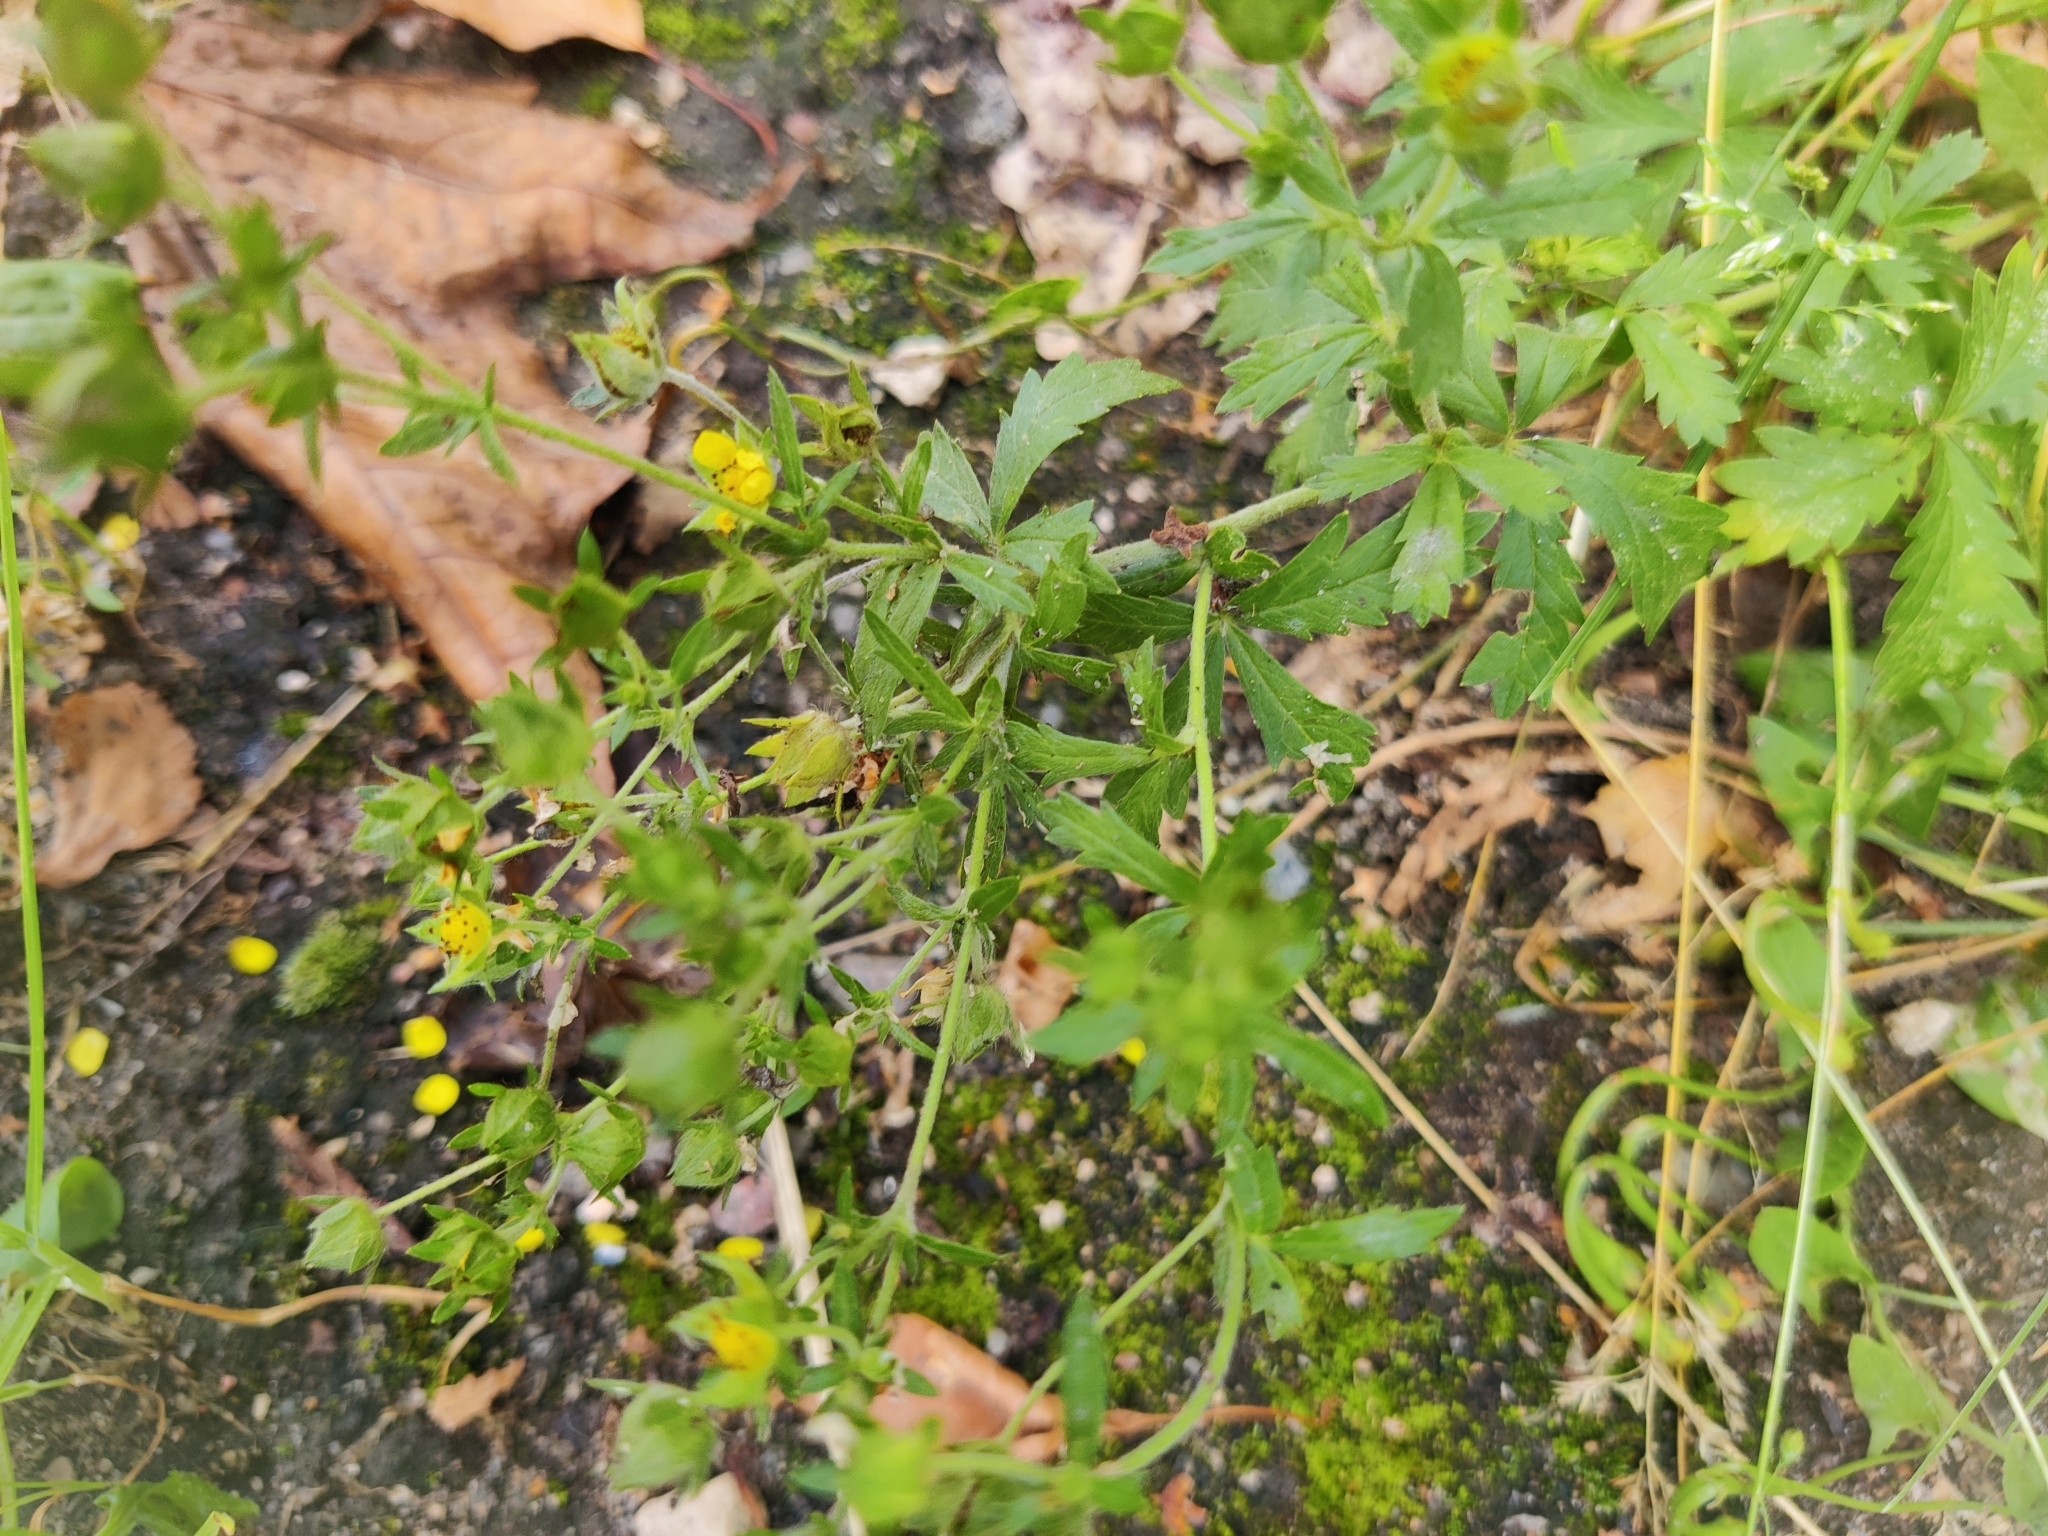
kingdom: Plantae
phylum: Tracheophyta
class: Magnoliopsida
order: Rosales
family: Rosaceae
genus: Potentilla
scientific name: Potentilla intermedia
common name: Downy cinquefoil
